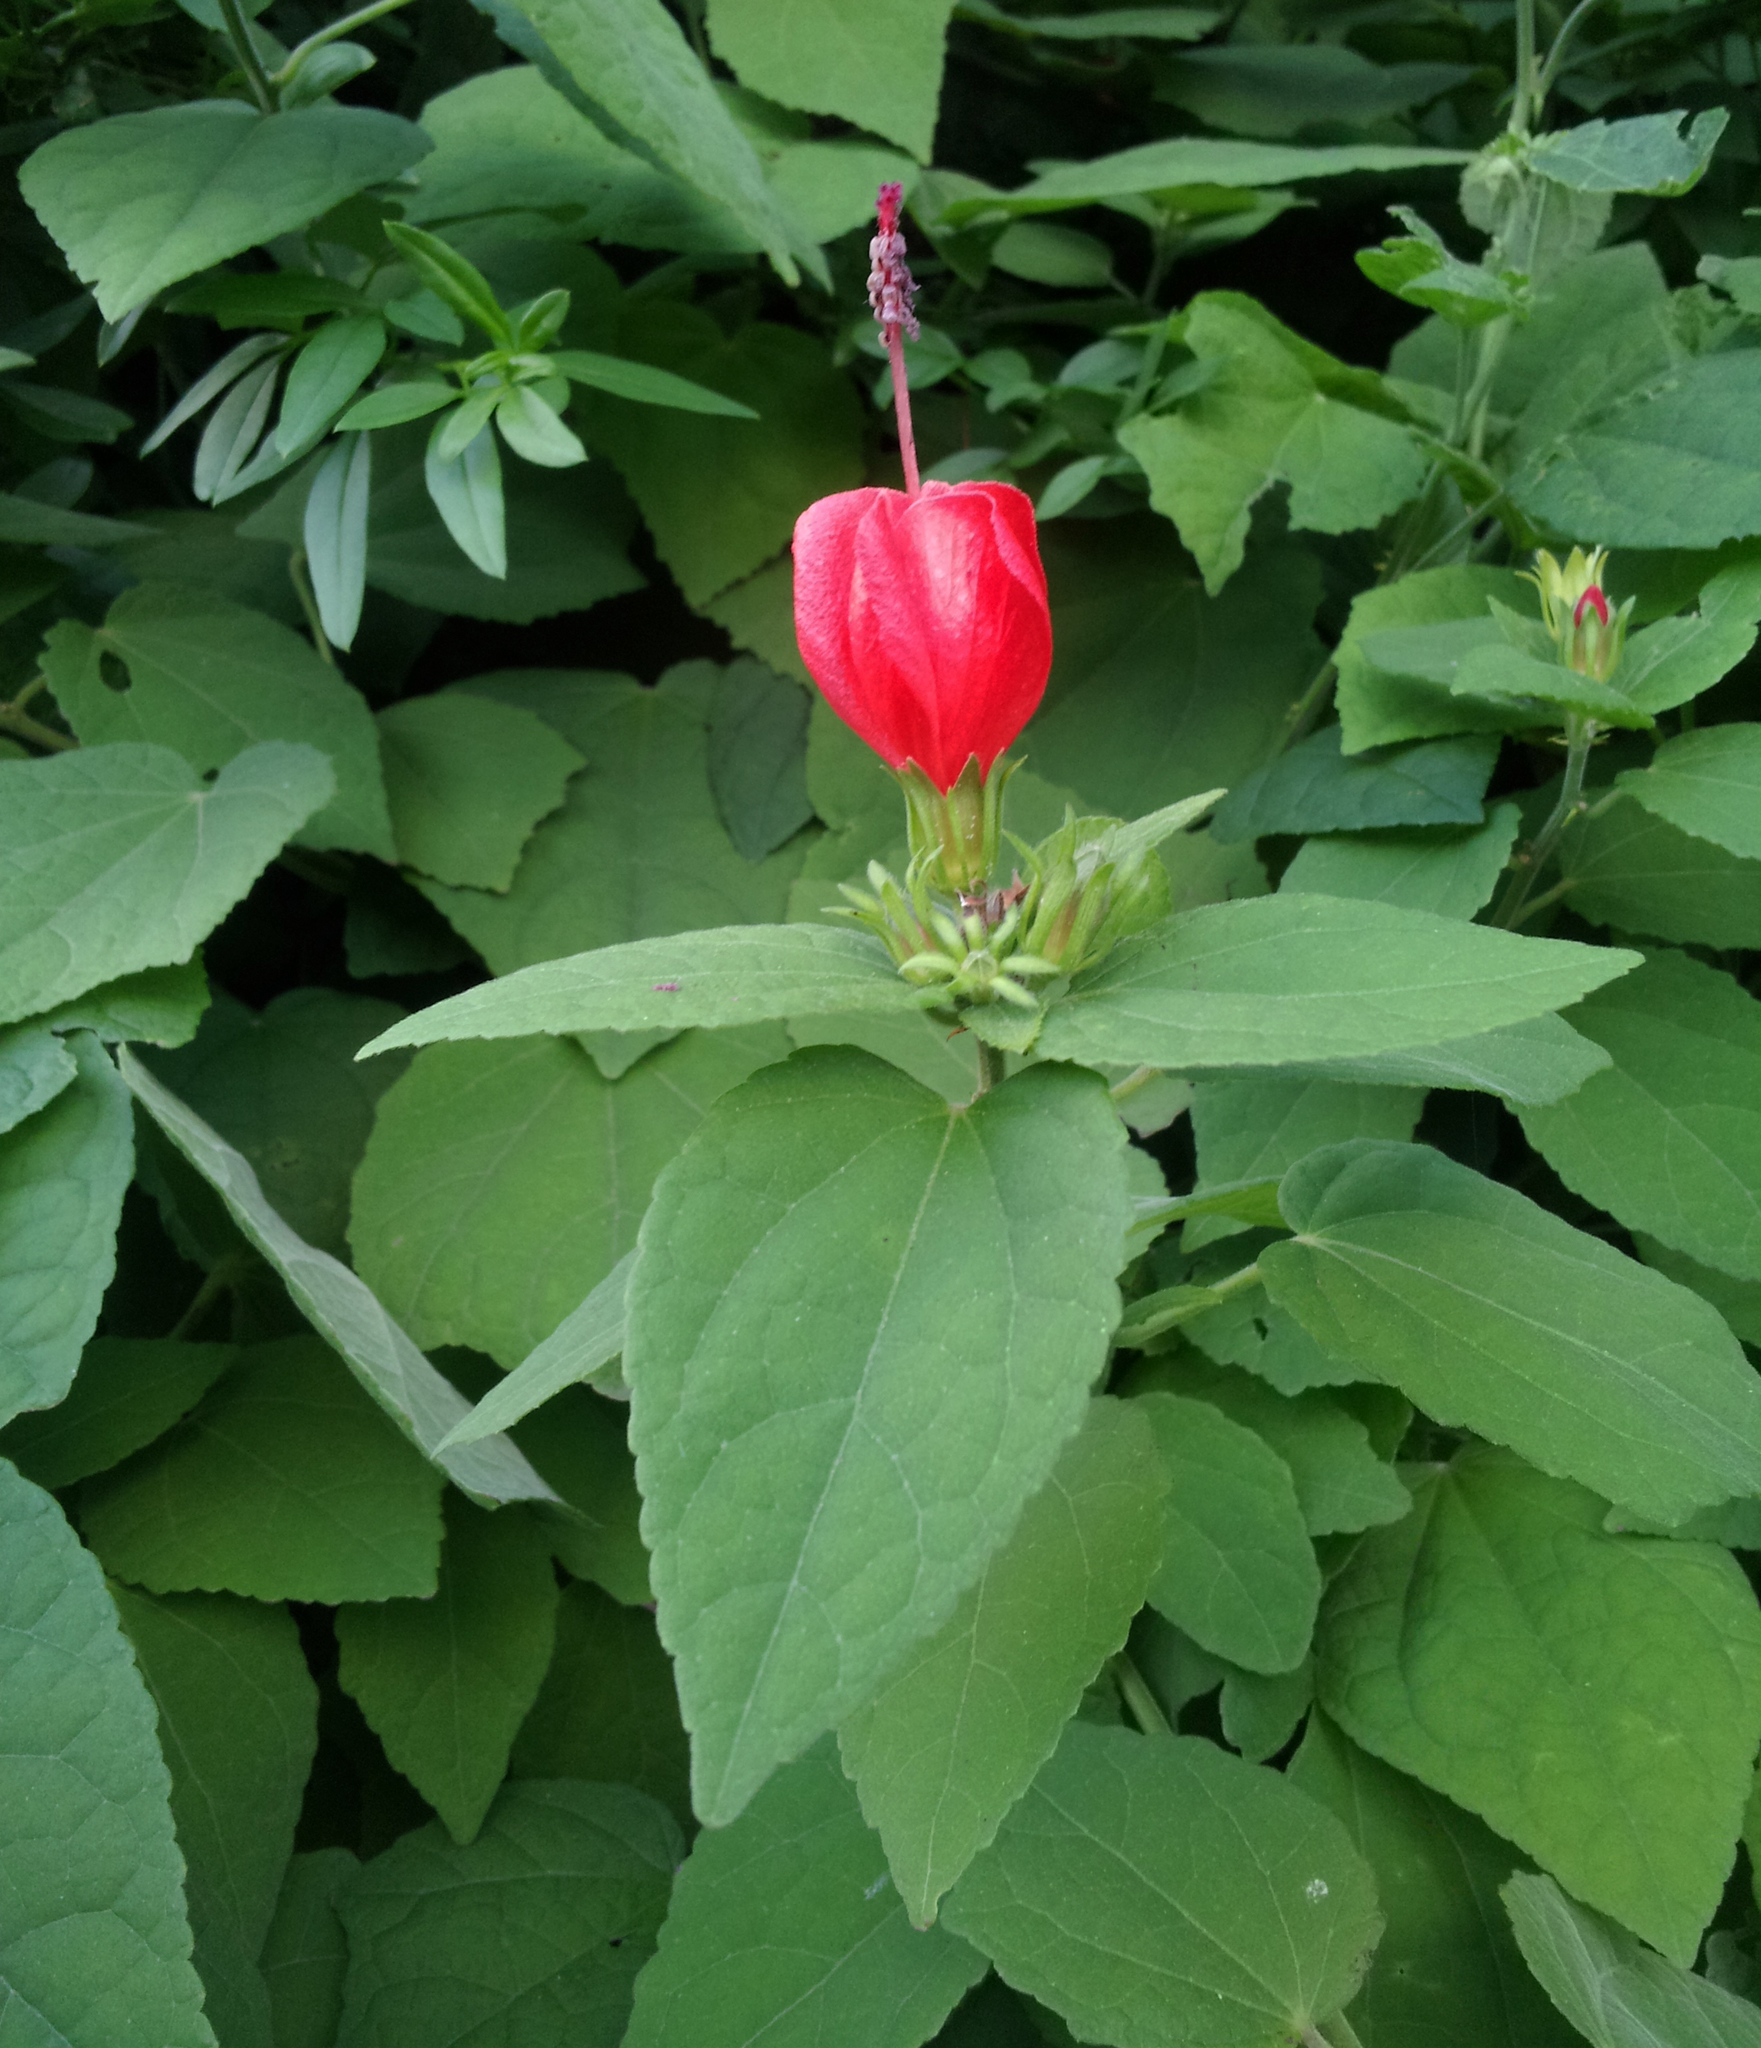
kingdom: Plantae
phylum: Tracheophyta
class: Magnoliopsida
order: Malvales
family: Malvaceae
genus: Malvaviscus
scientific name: Malvaviscus arboreus
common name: Wax mallow
